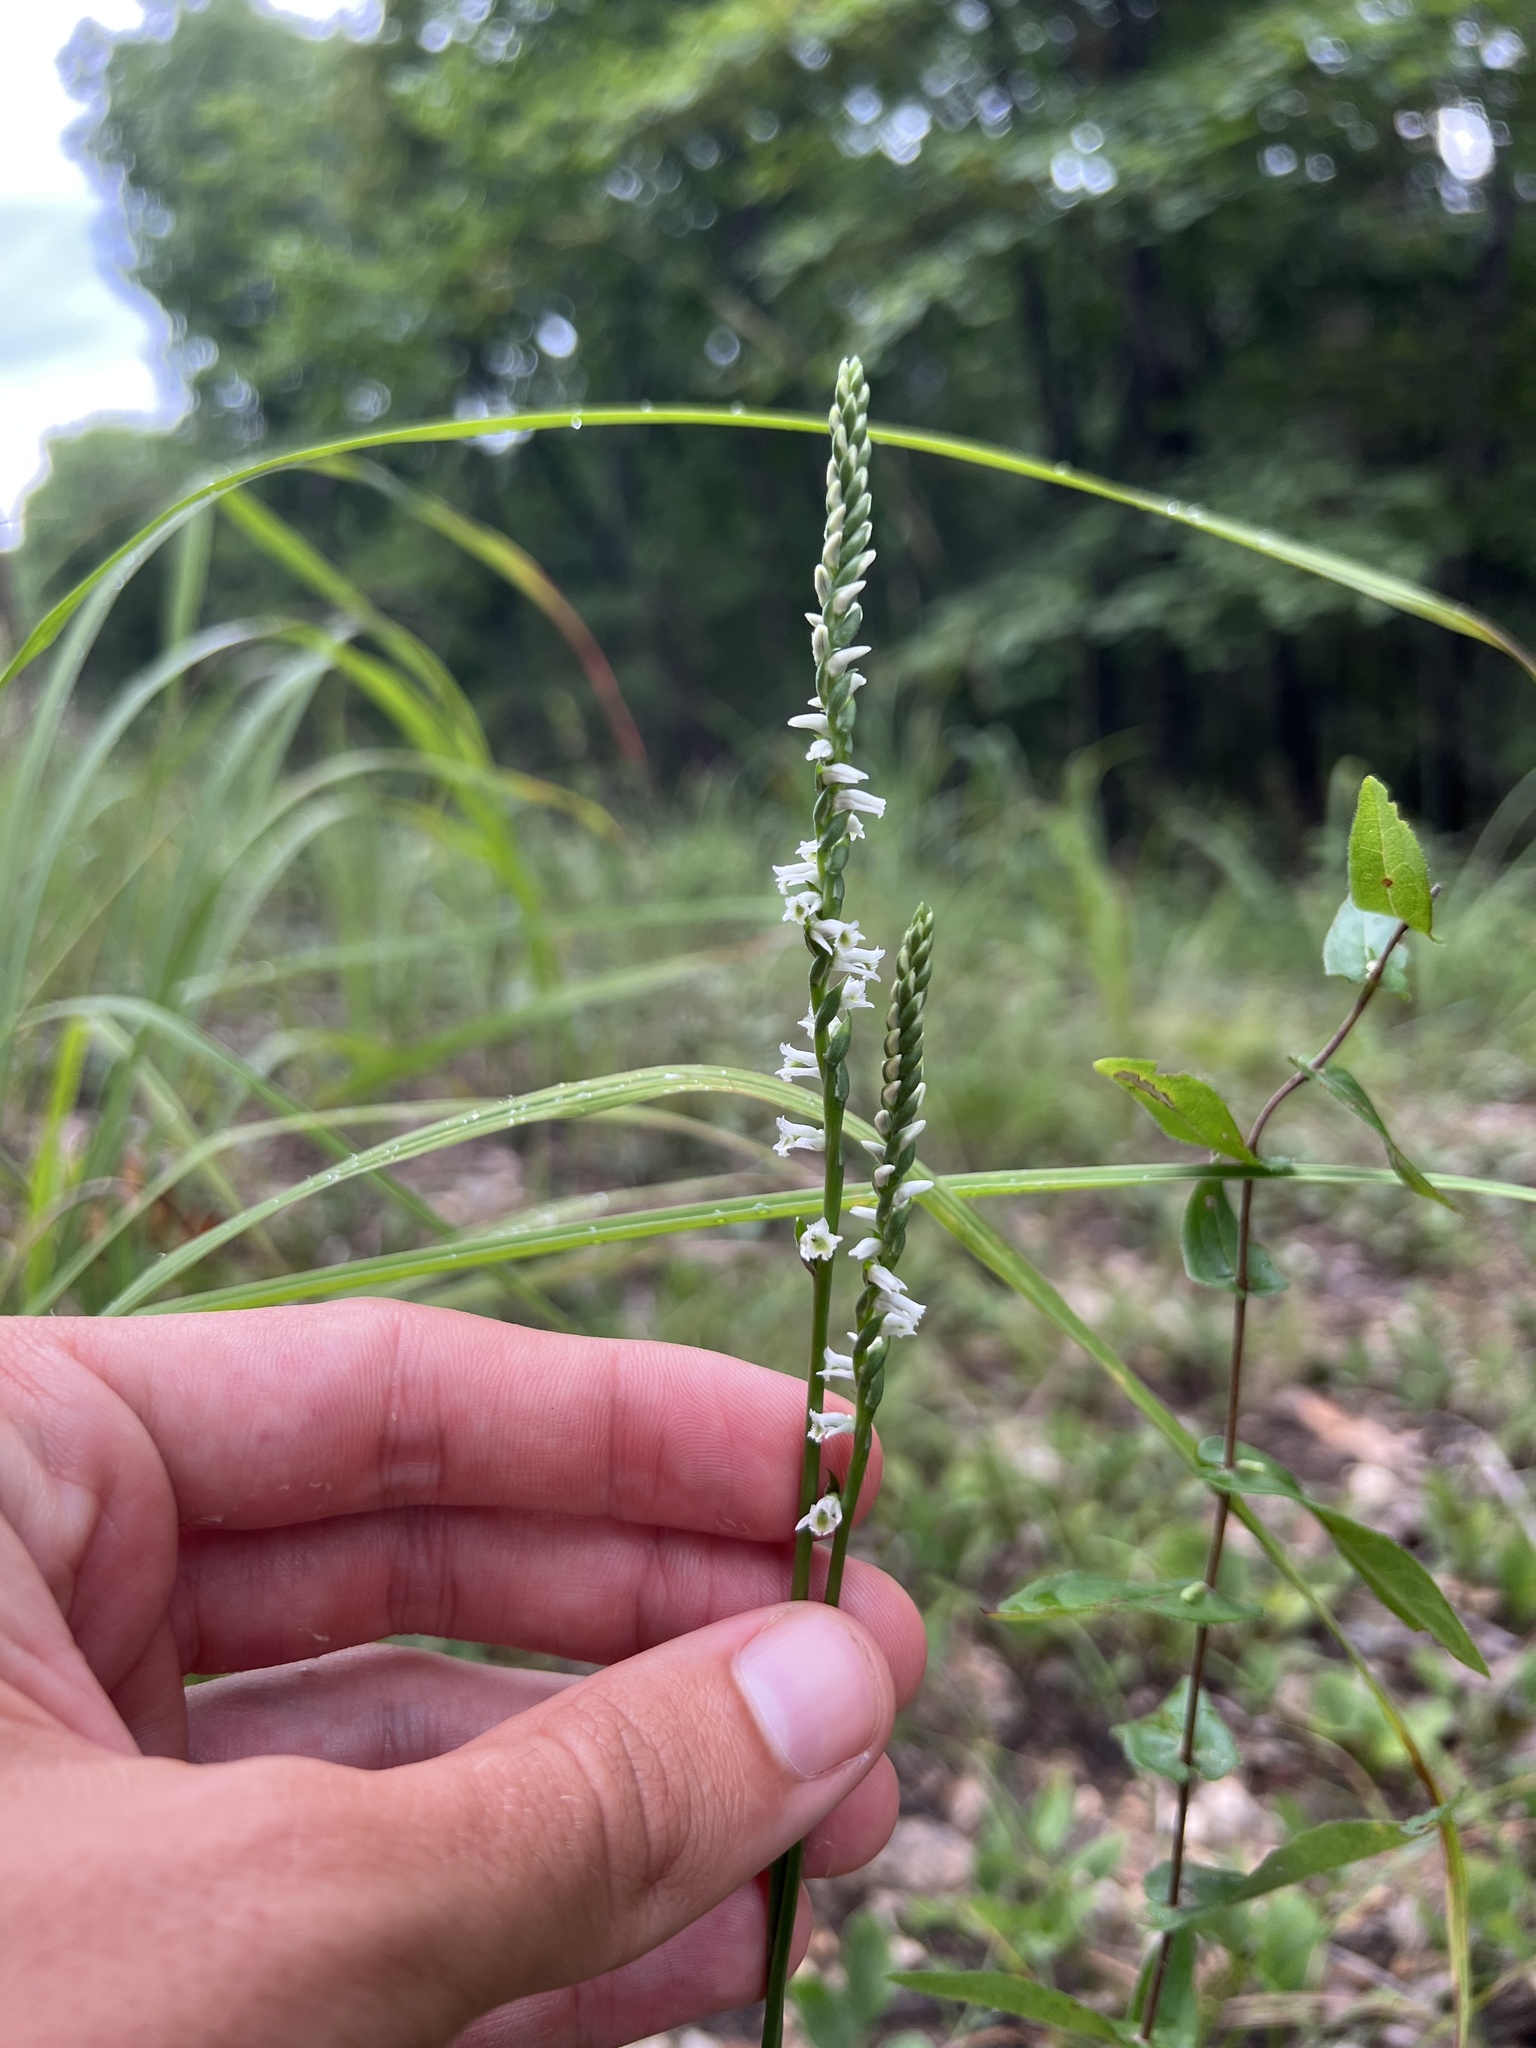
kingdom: Plantae
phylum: Tracheophyta
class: Liliopsida
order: Asparagales
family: Orchidaceae
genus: Spiranthes
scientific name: Spiranthes lacera
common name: Northern slender ladies'-tresses
